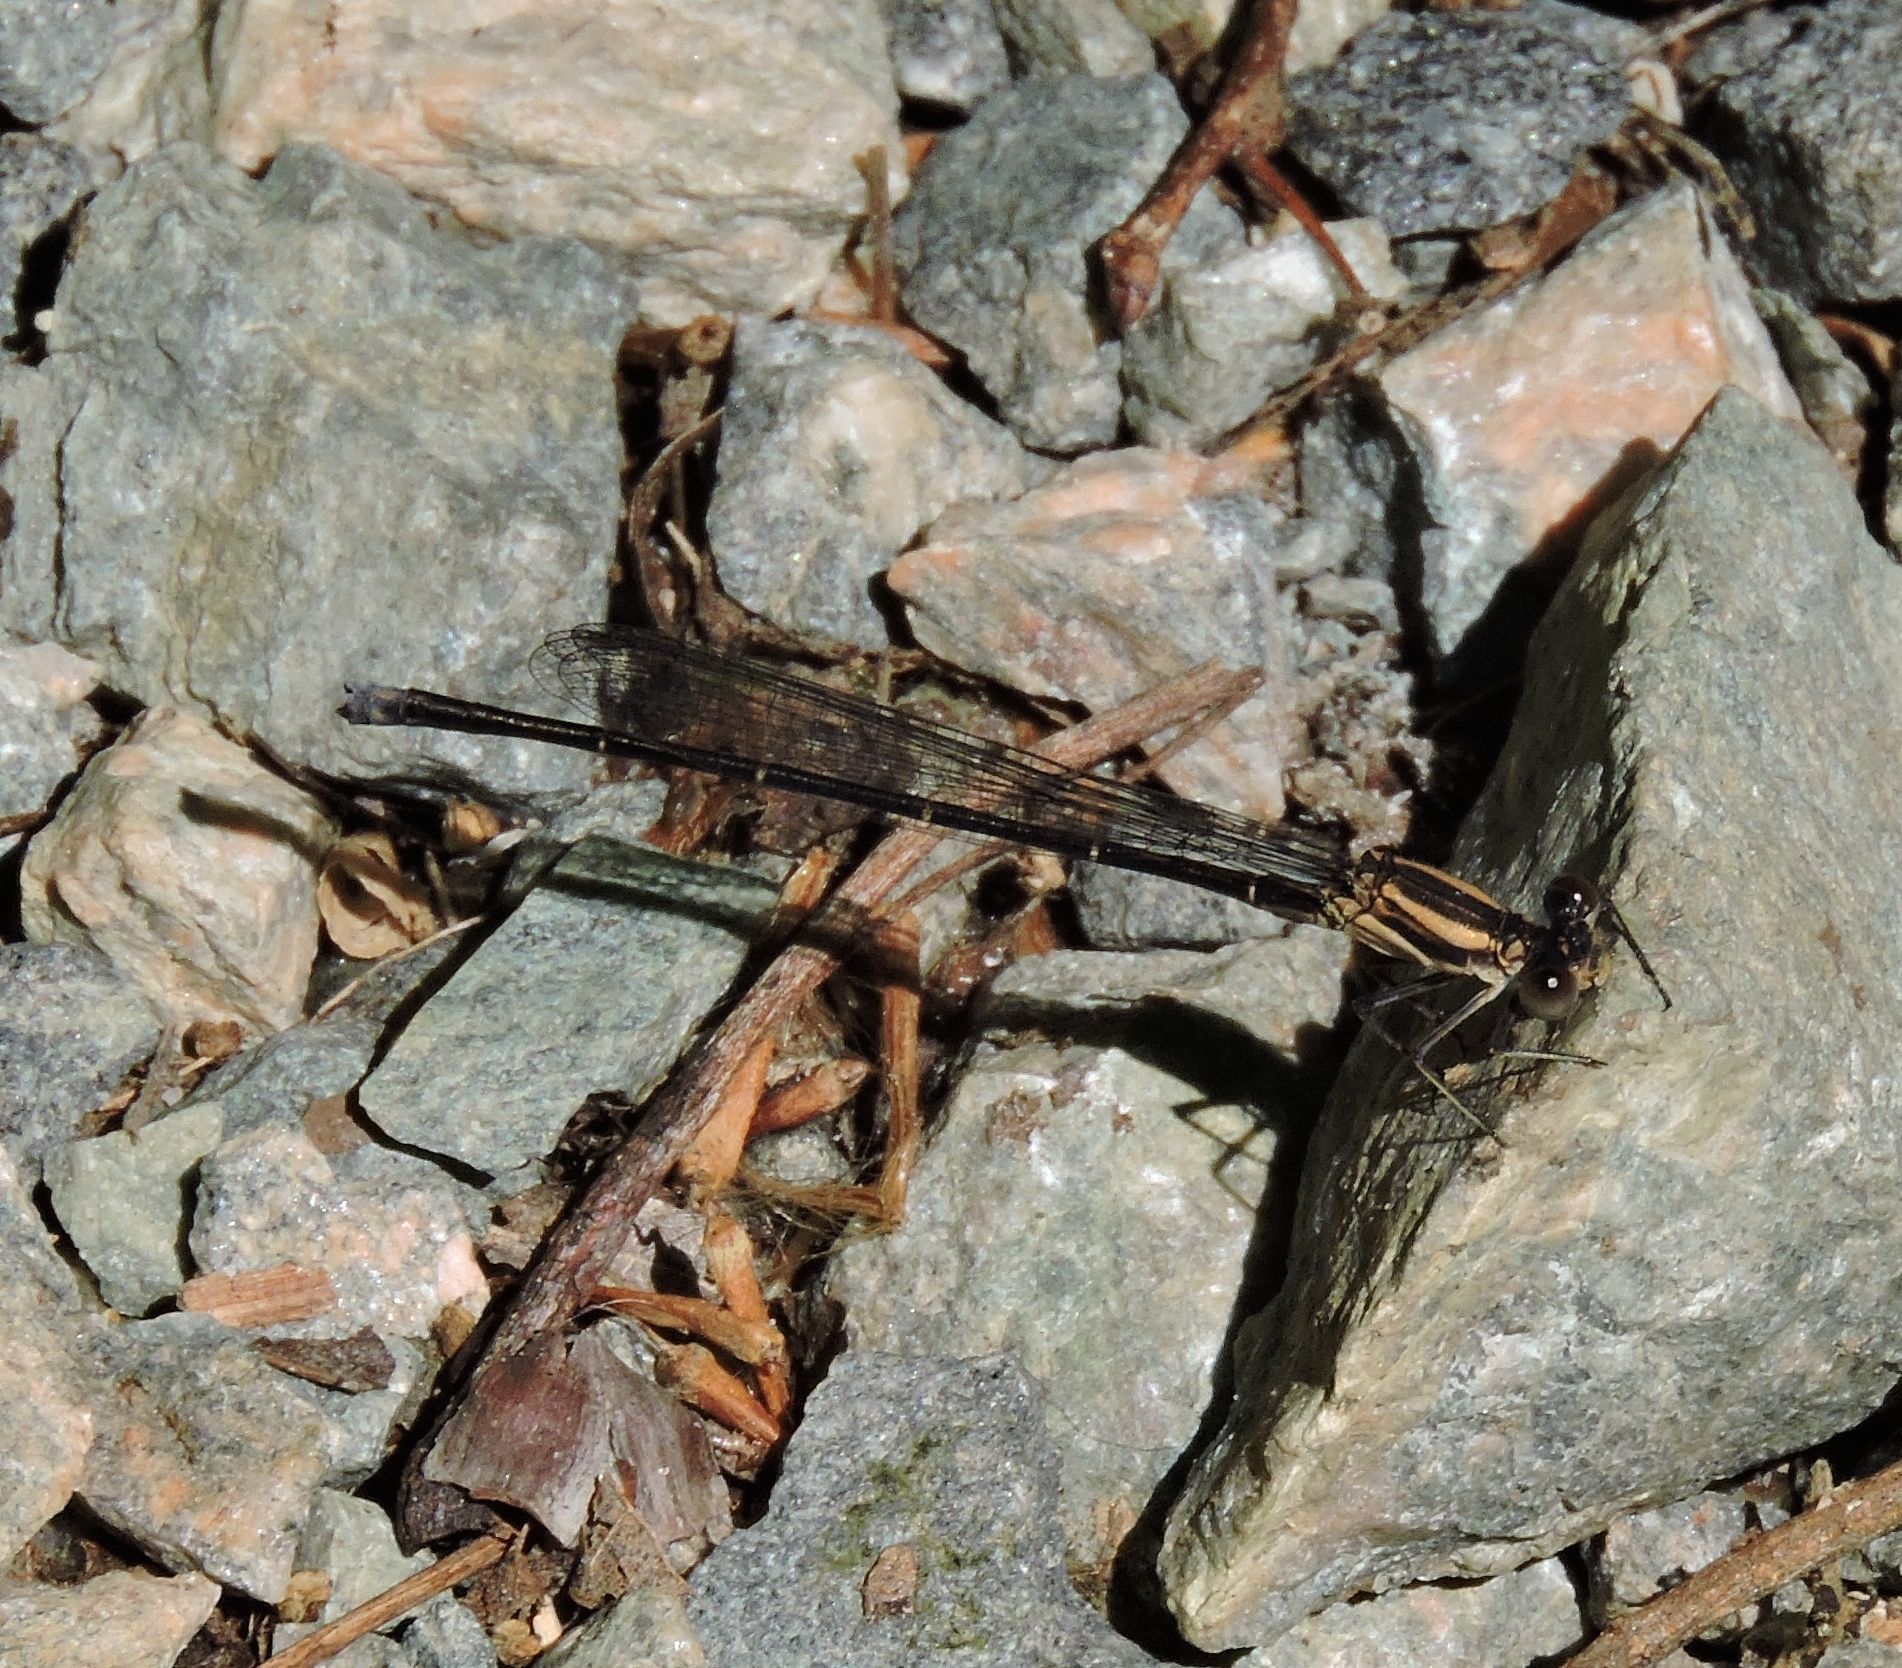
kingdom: Animalia
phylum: Arthropoda
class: Insecta
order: Odonata
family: Coenagrionidae
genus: Argia
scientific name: Argia tibialis
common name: Blue-tipped dancer
